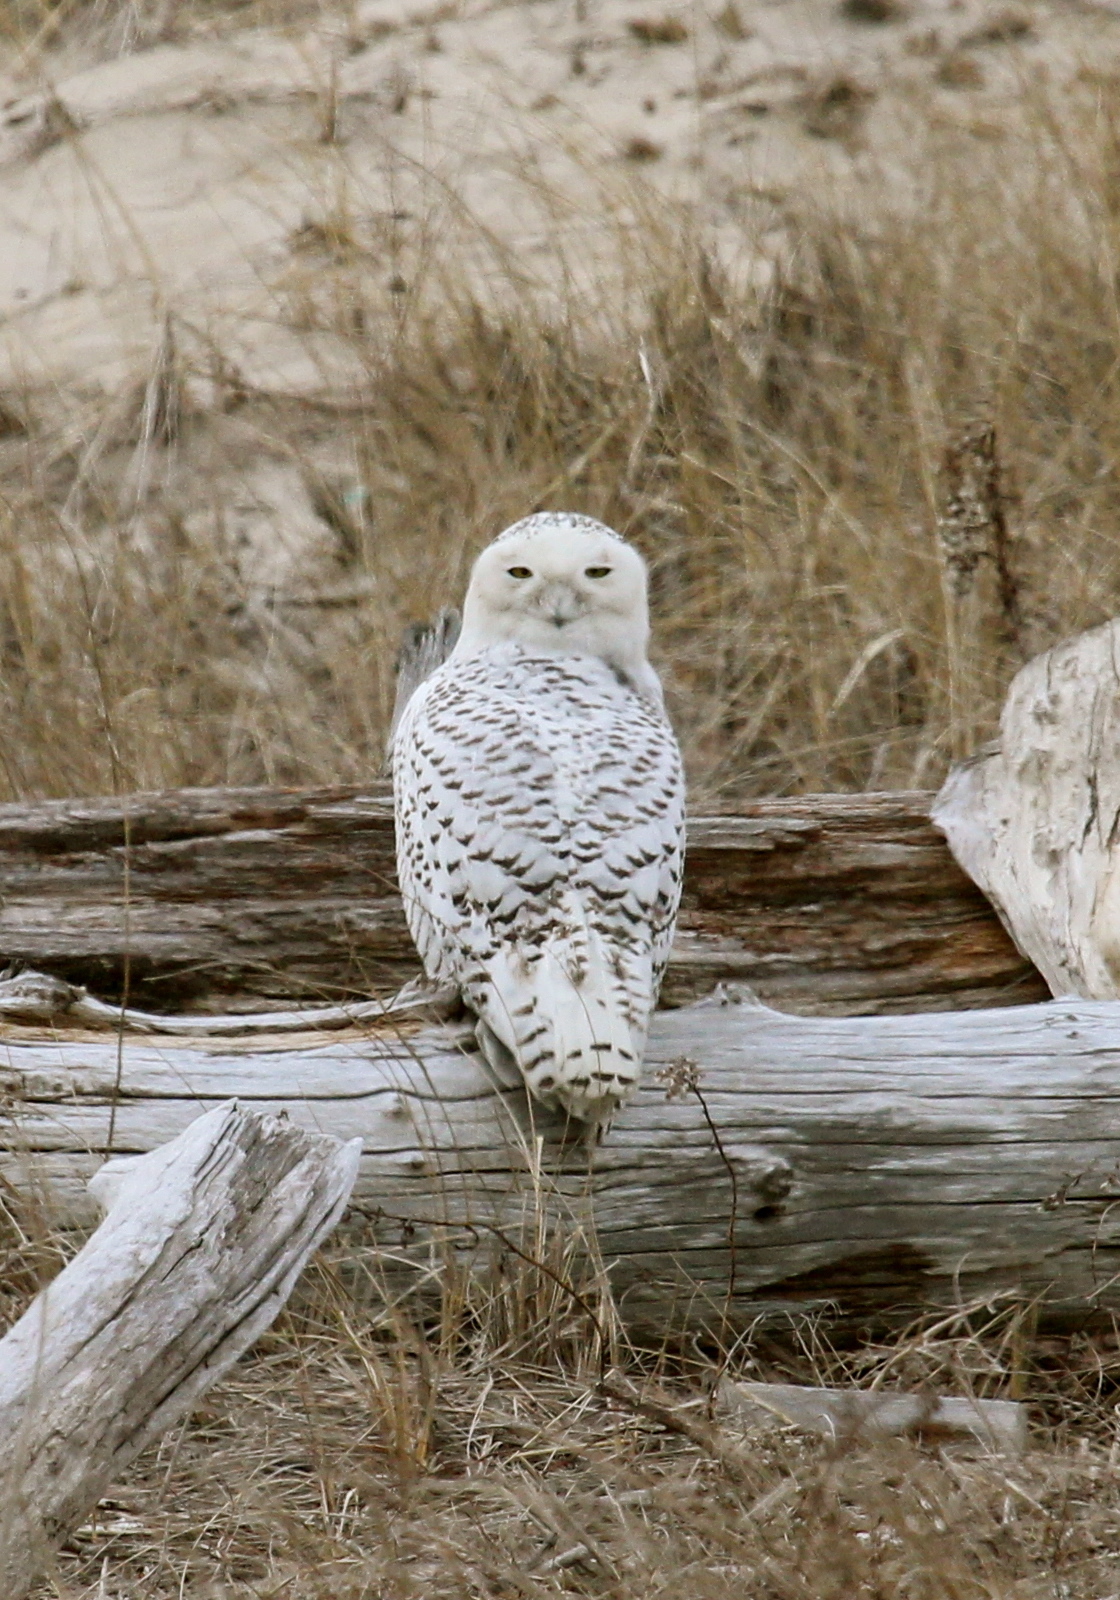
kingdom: Animalia
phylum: Chordata
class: Aves
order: Strigiformes
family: Strigidae
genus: Bubo
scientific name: Bubo scandiacus
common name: Snowy owl
